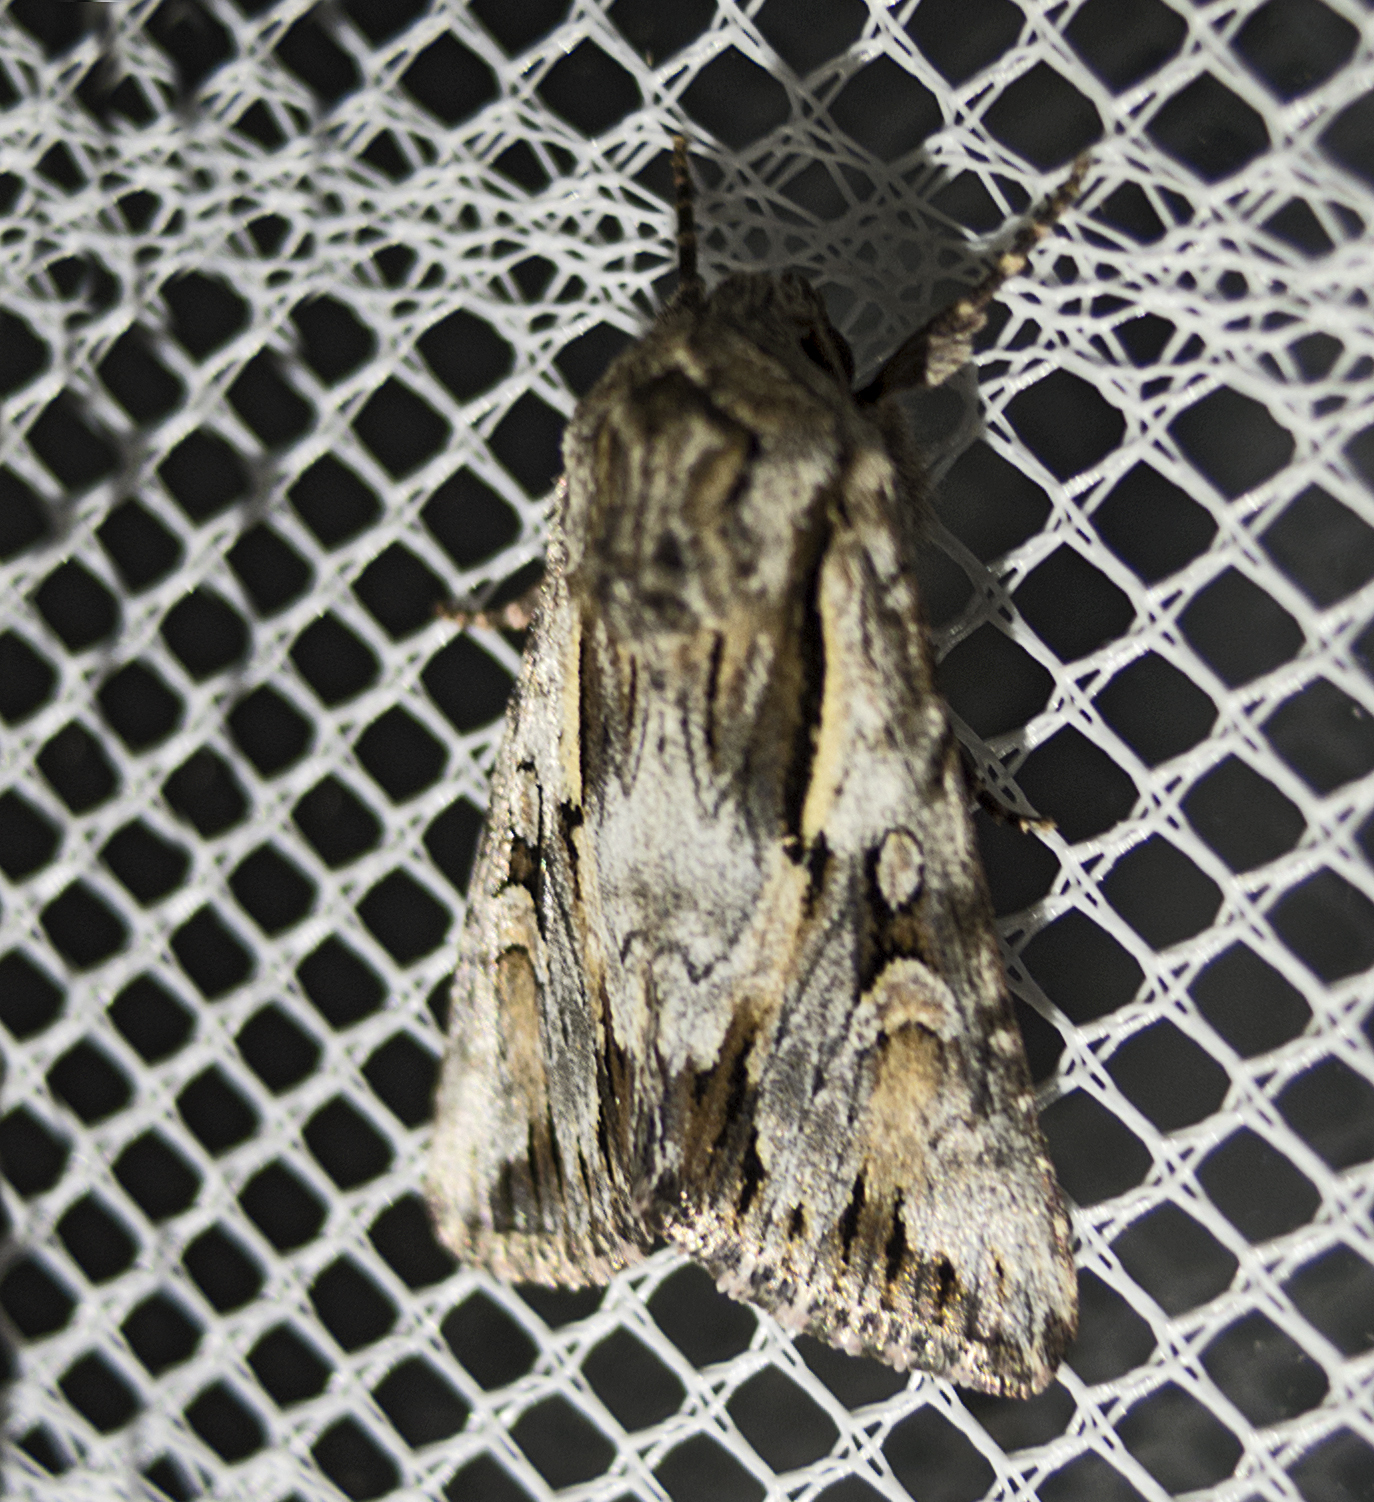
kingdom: Animalia
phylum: Arthropoda
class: Insecta
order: Lepidoptera
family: Noctuidae
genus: Chloantha
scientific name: Chloantha hyperici
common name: Pale-shouldered cloud
